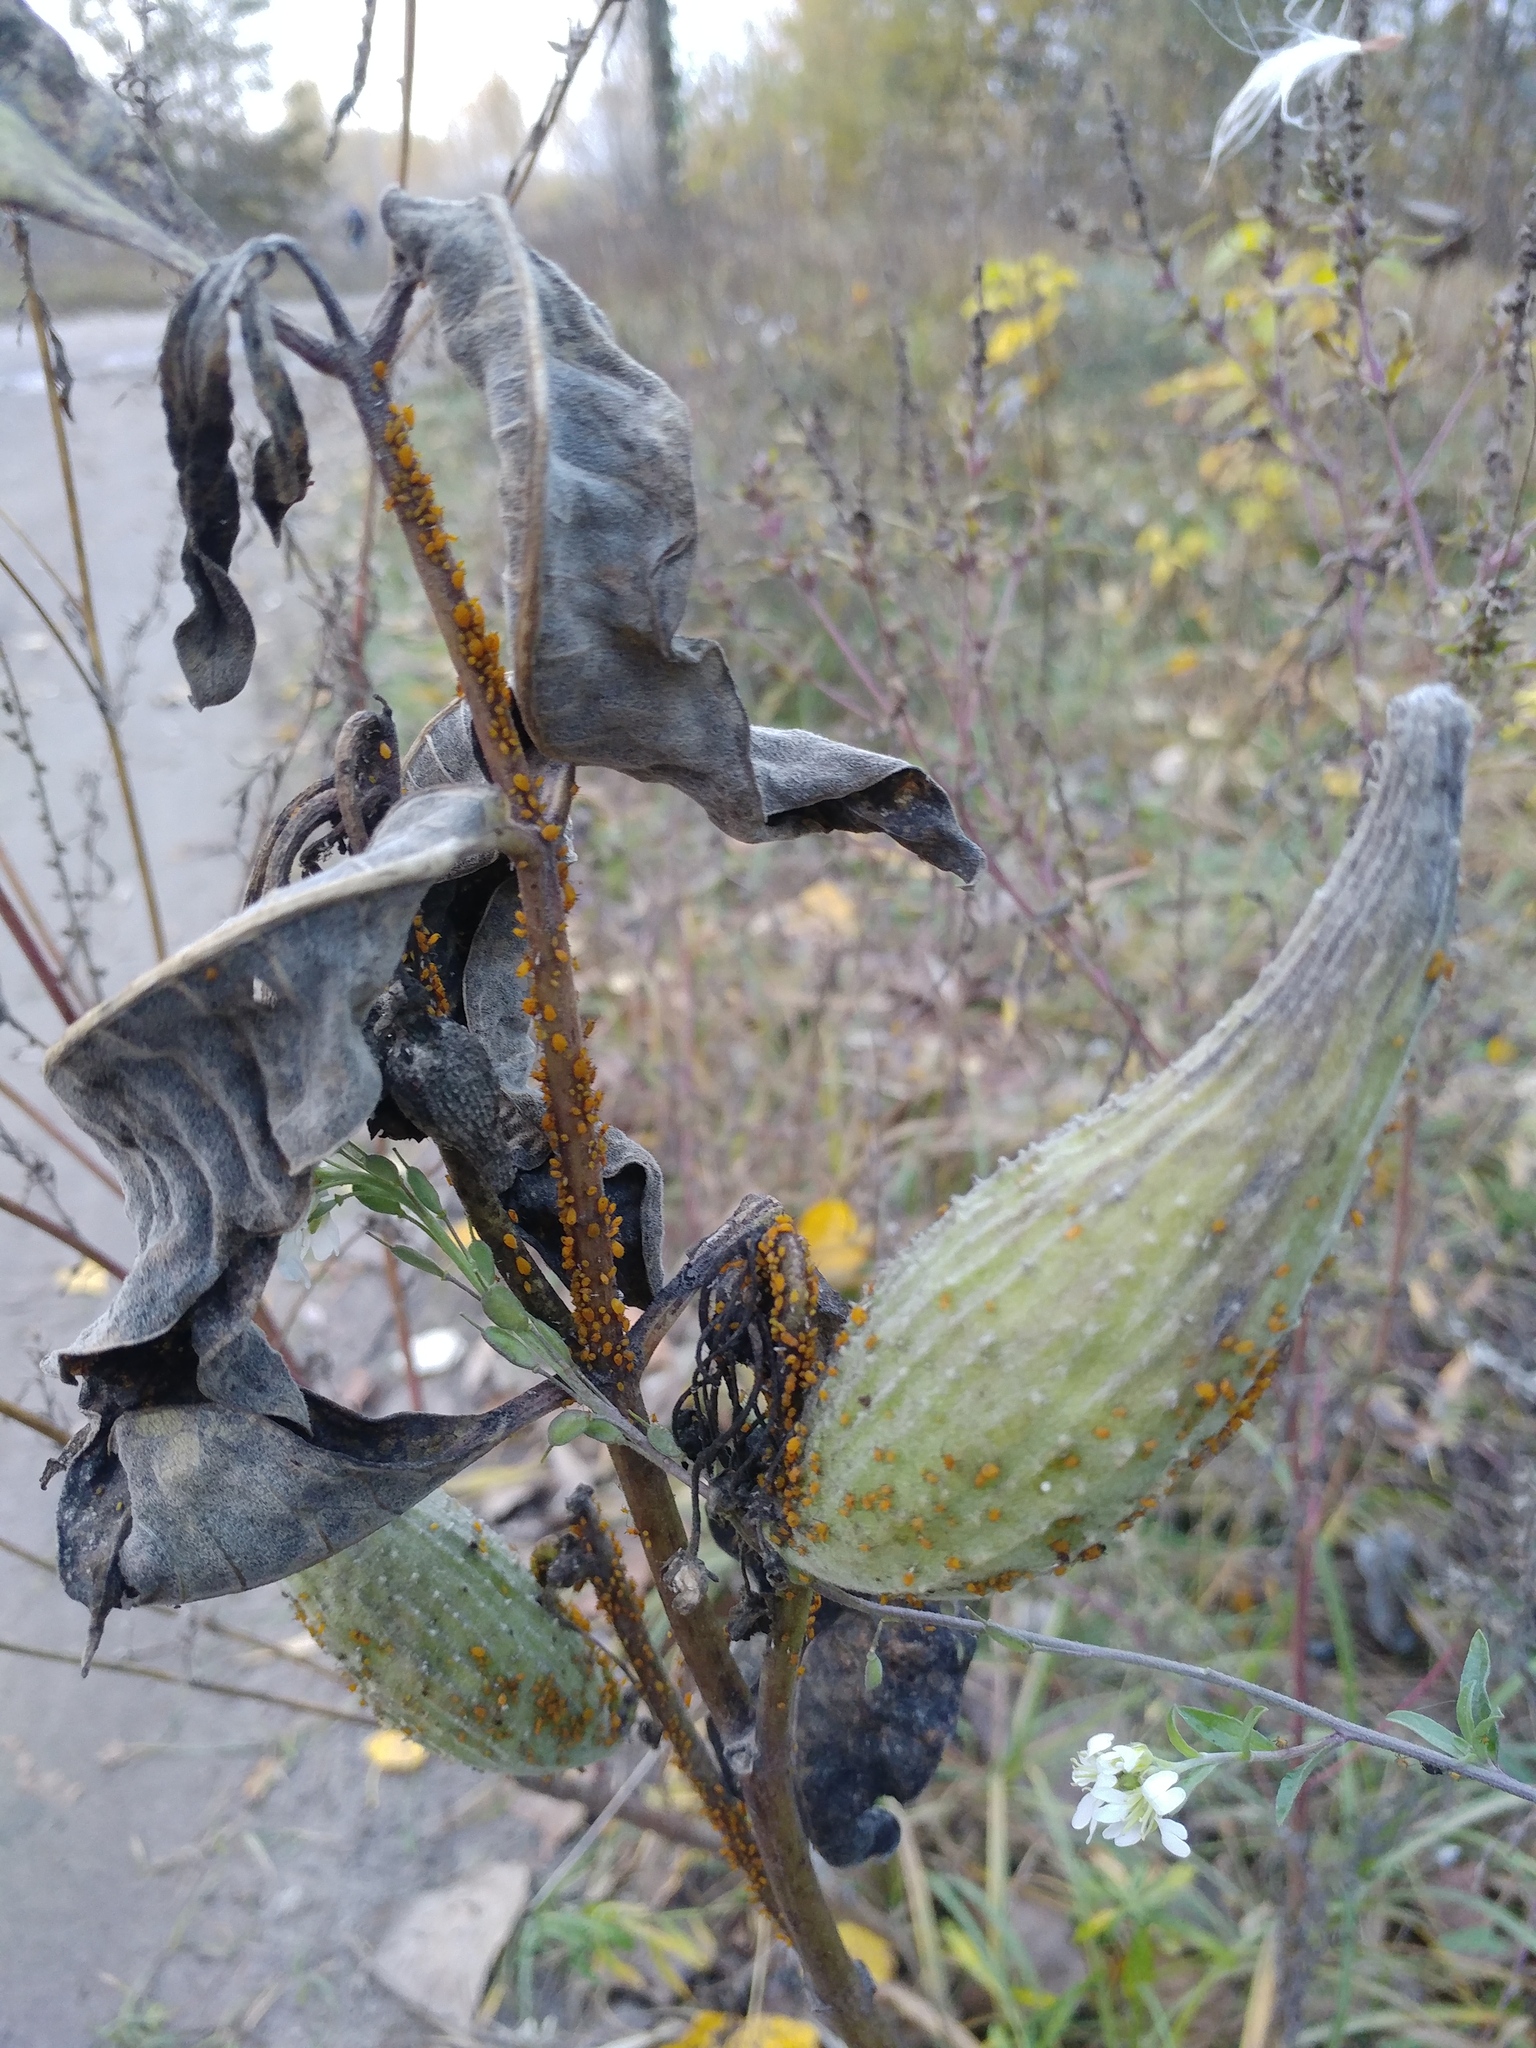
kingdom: Animalia
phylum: Arthropoda
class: Insecta
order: Hemiptera
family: Aphididae
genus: Aphis
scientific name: Aphis nerii
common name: Oleander aphid
